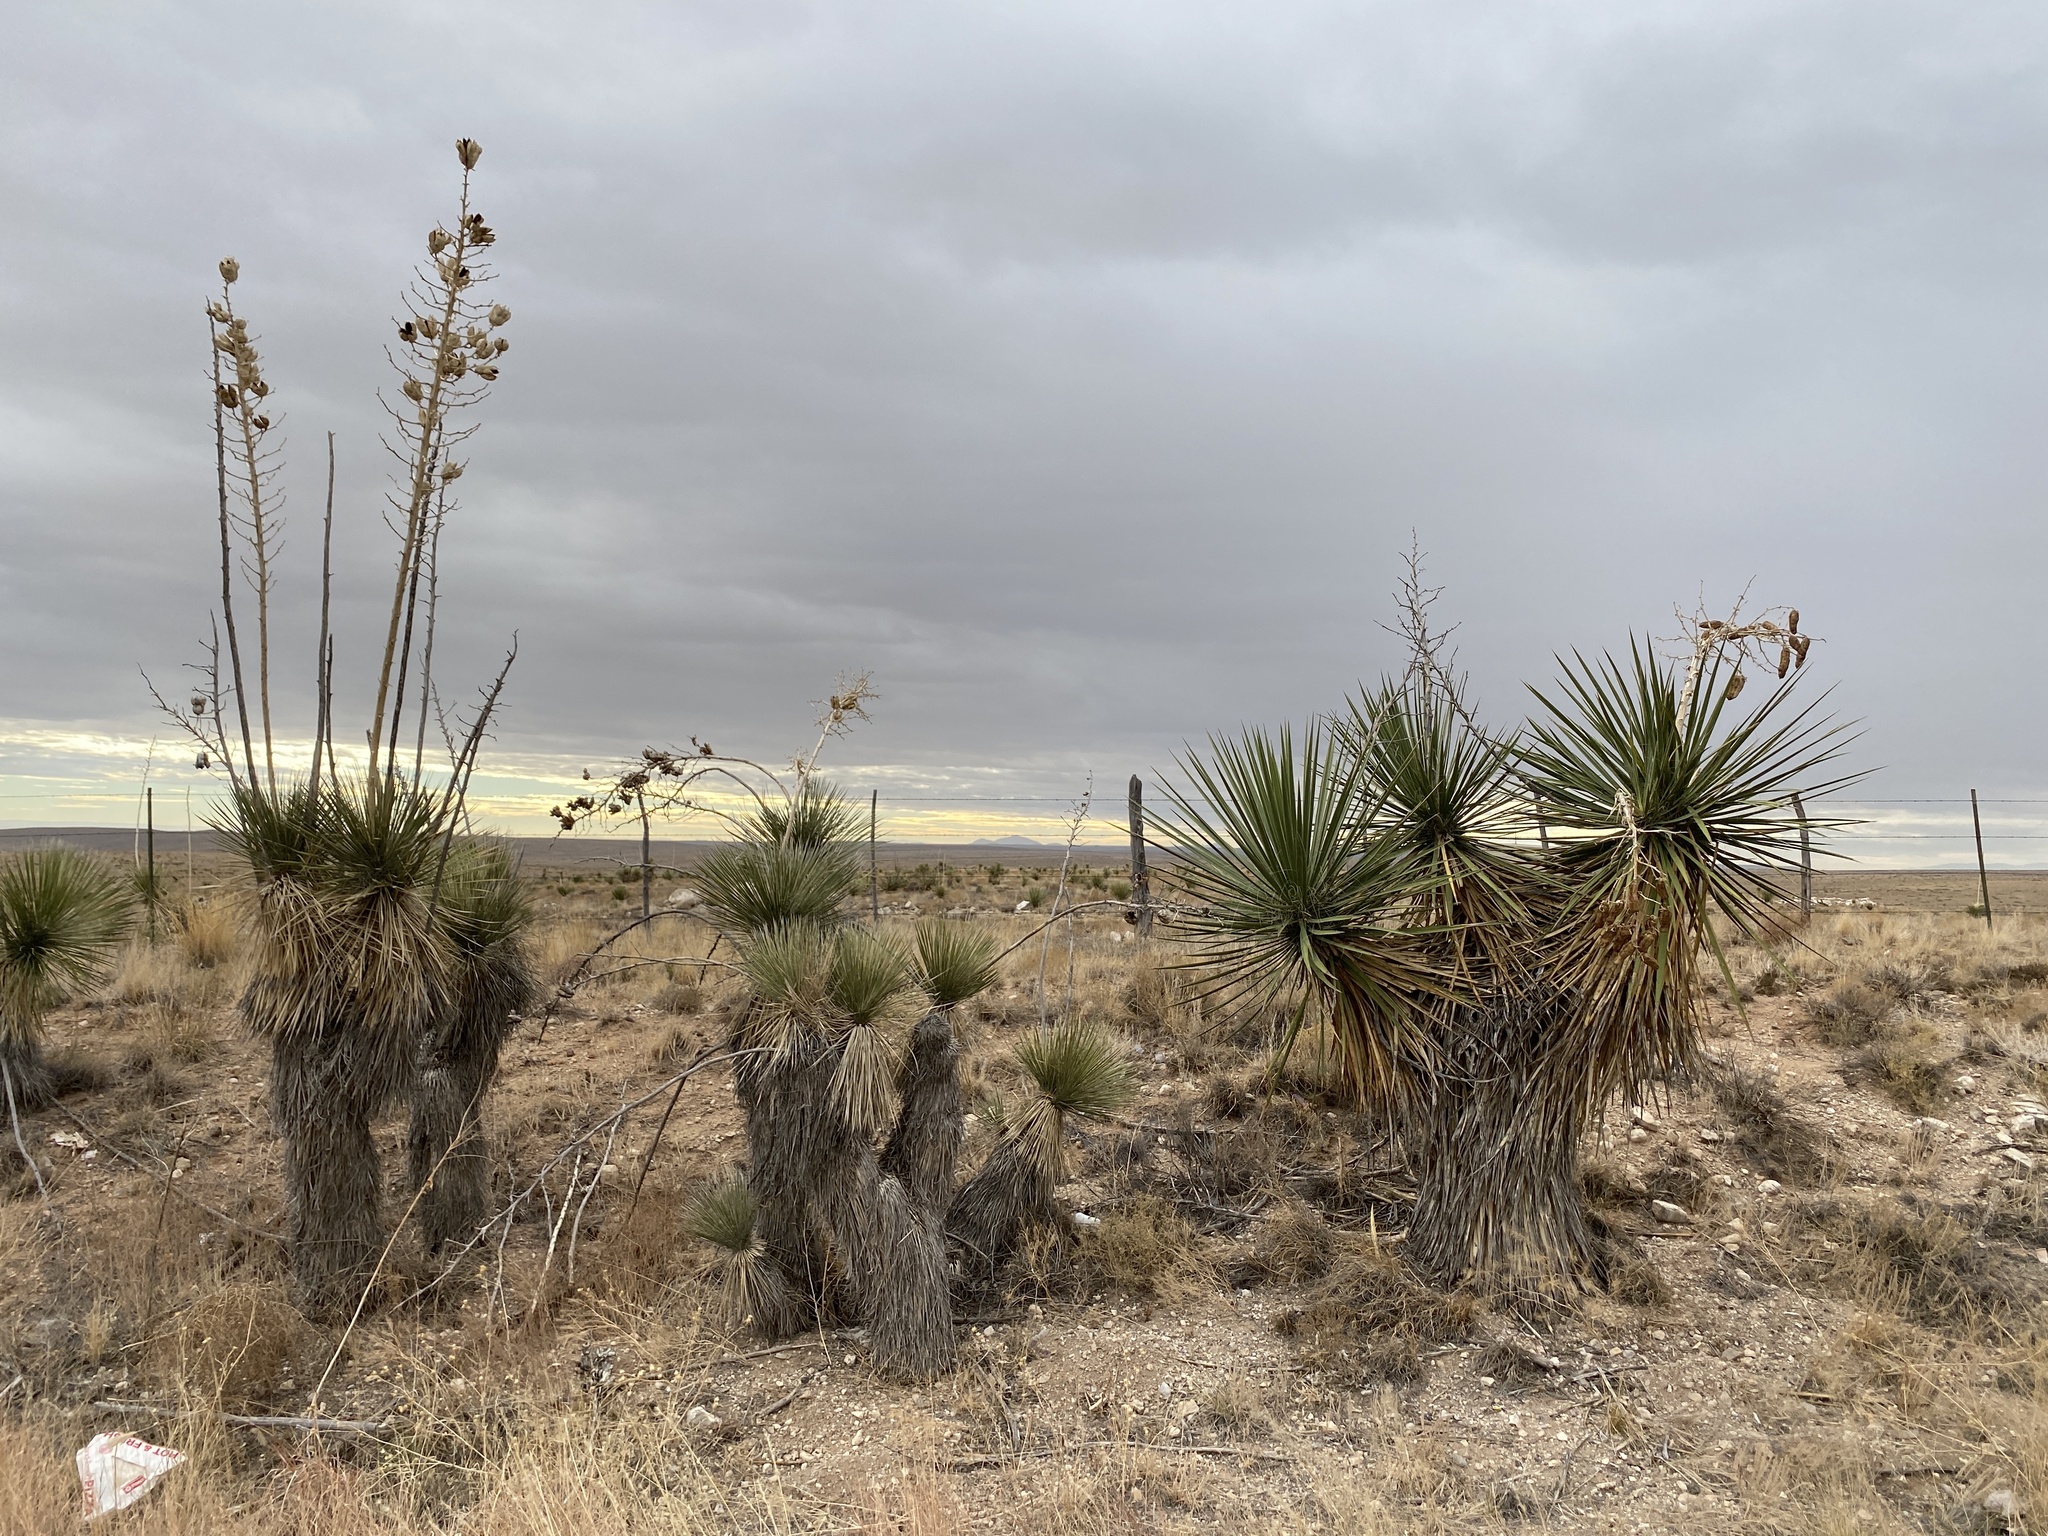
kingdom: Plantae
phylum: Tracheophyta
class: Liliopsida
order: Asparagales
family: Asparagaceae
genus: Yucca
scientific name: Yucca elata
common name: Palmella
